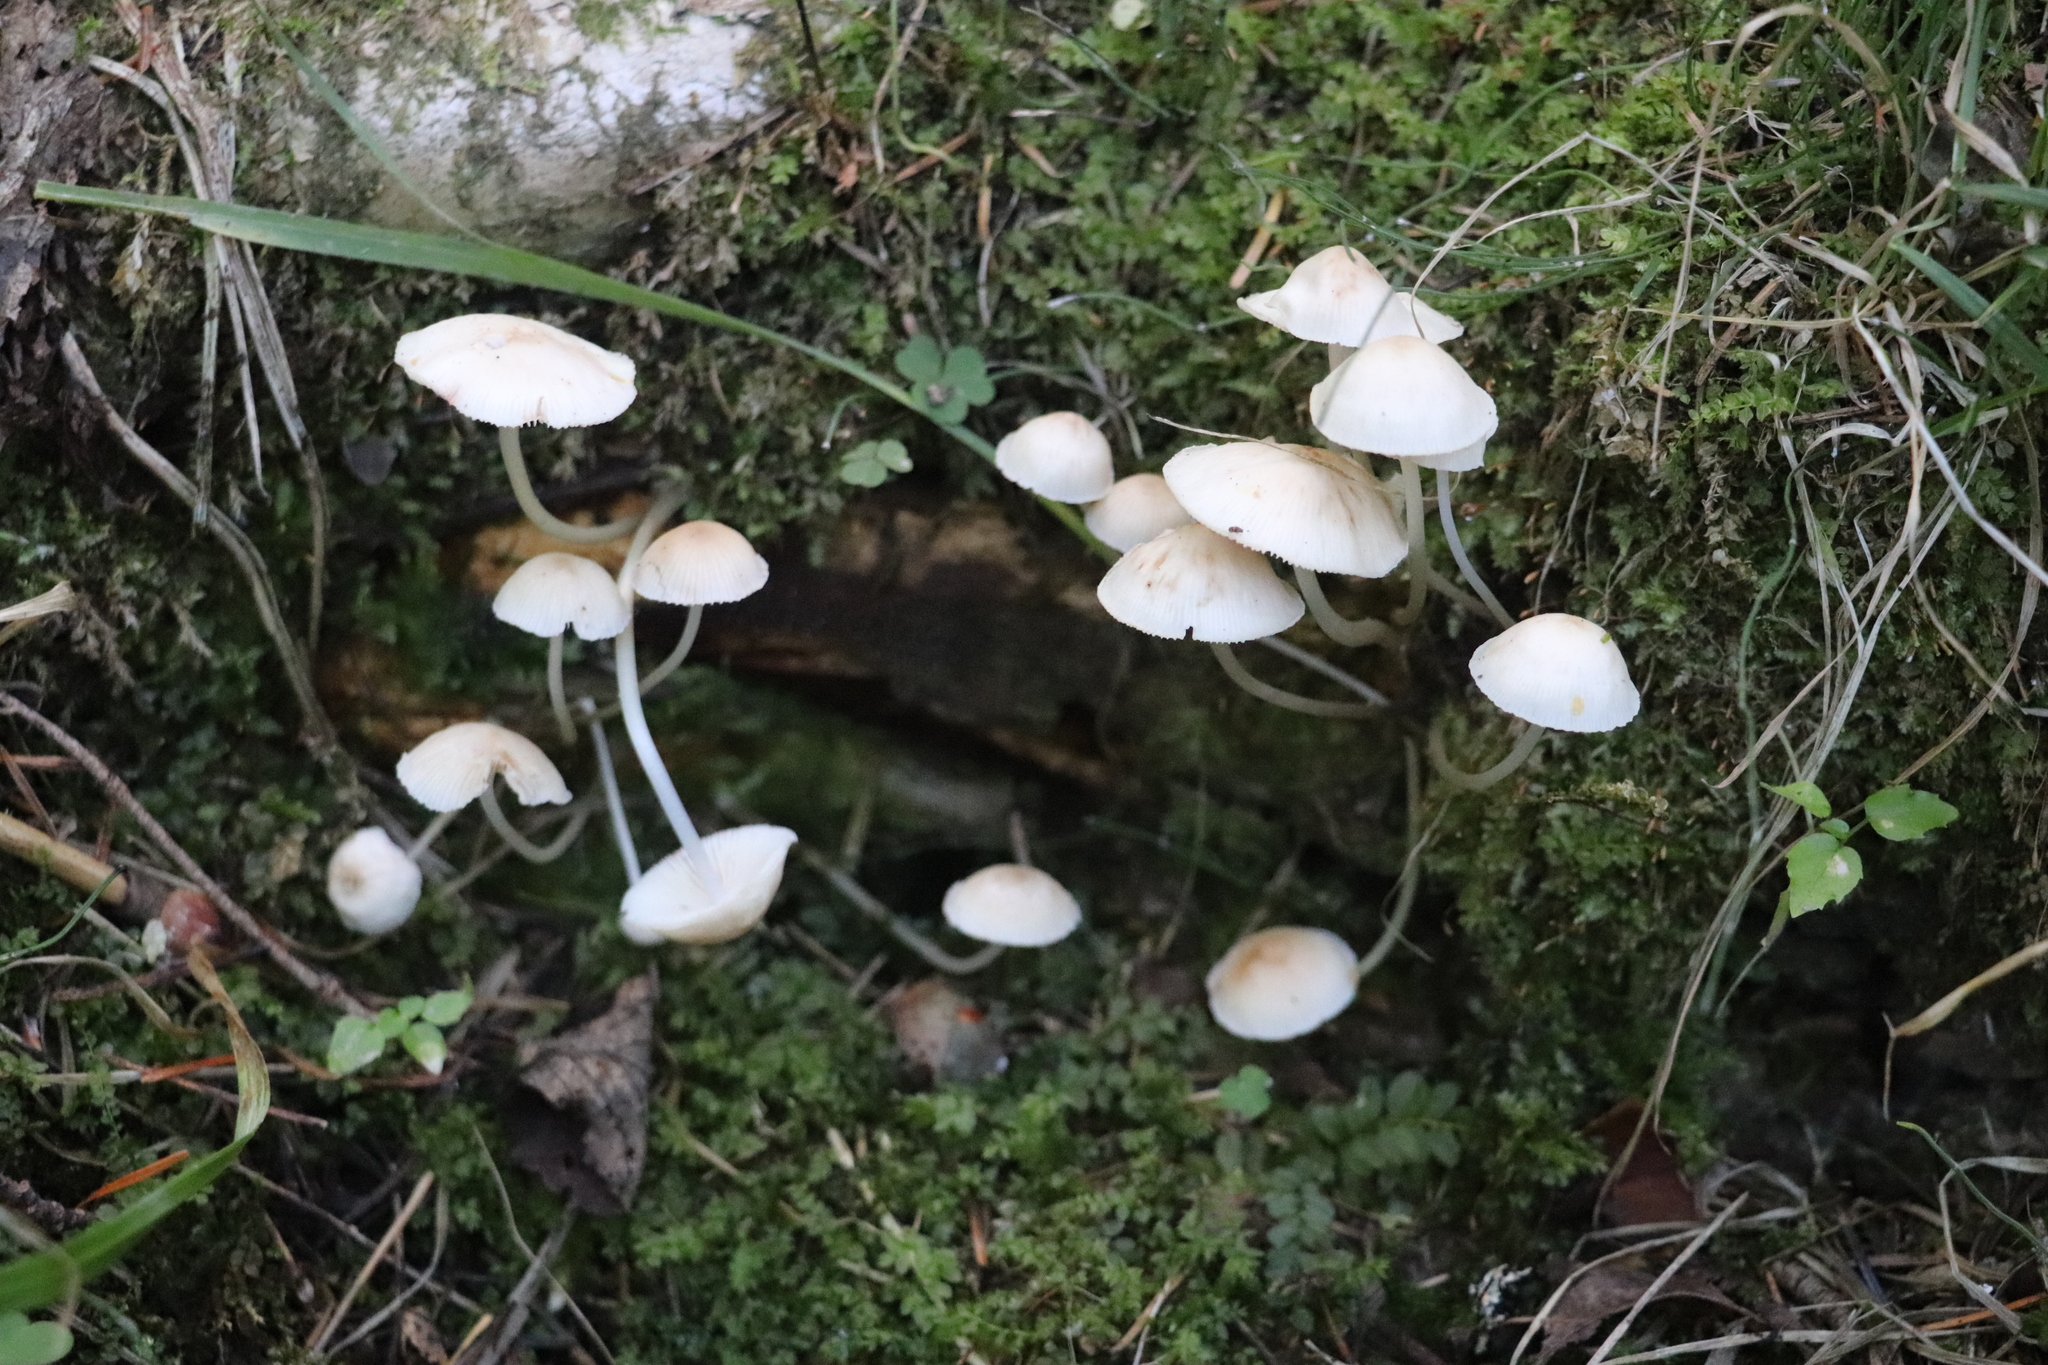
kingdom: Fungi
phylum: Basidiomycota
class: Agaricomycetes
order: Agaricales
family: Marasmiaceae
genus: Marasmius
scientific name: Marasmius wynneae
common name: Pearly parachute
